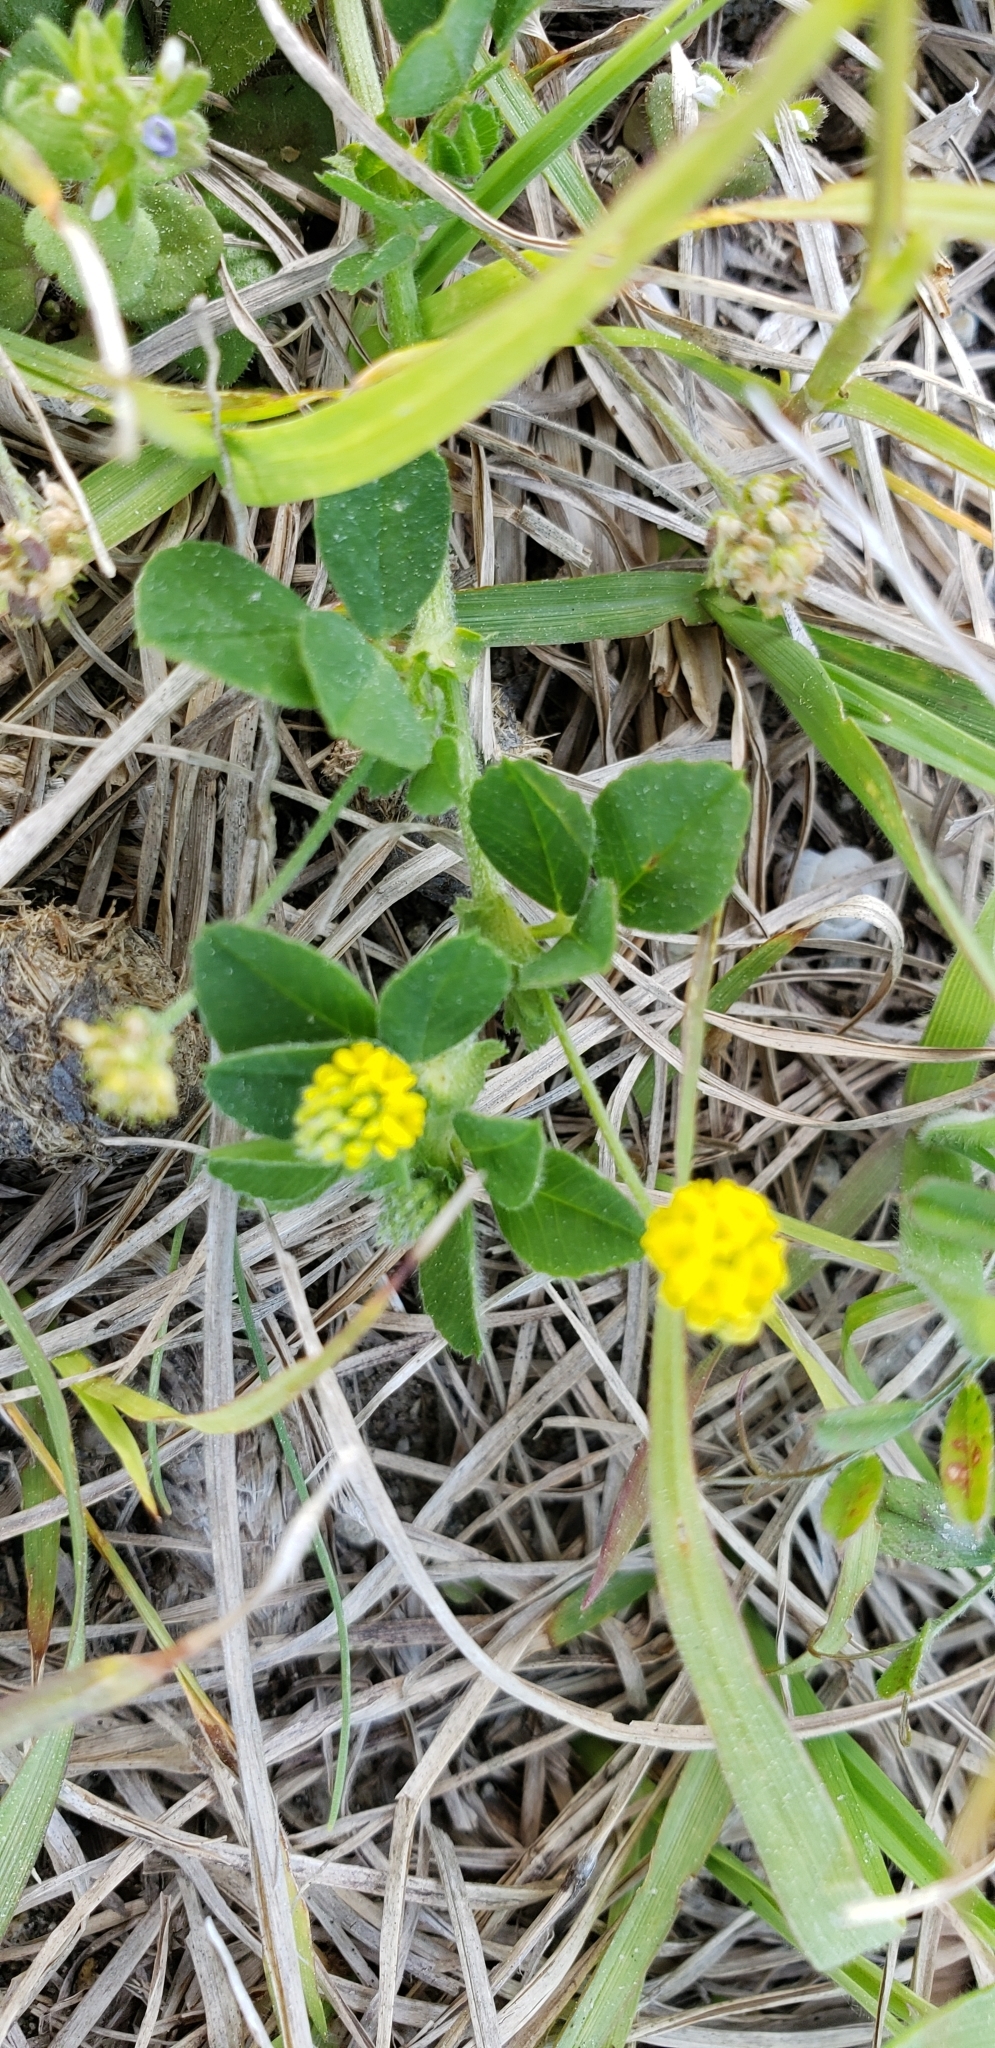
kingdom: Plantae
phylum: Tracheophyta
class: Magnoliopsida
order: Fabales
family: Fabaceae
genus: Medicago
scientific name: Medicago lupulina
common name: Black medick
